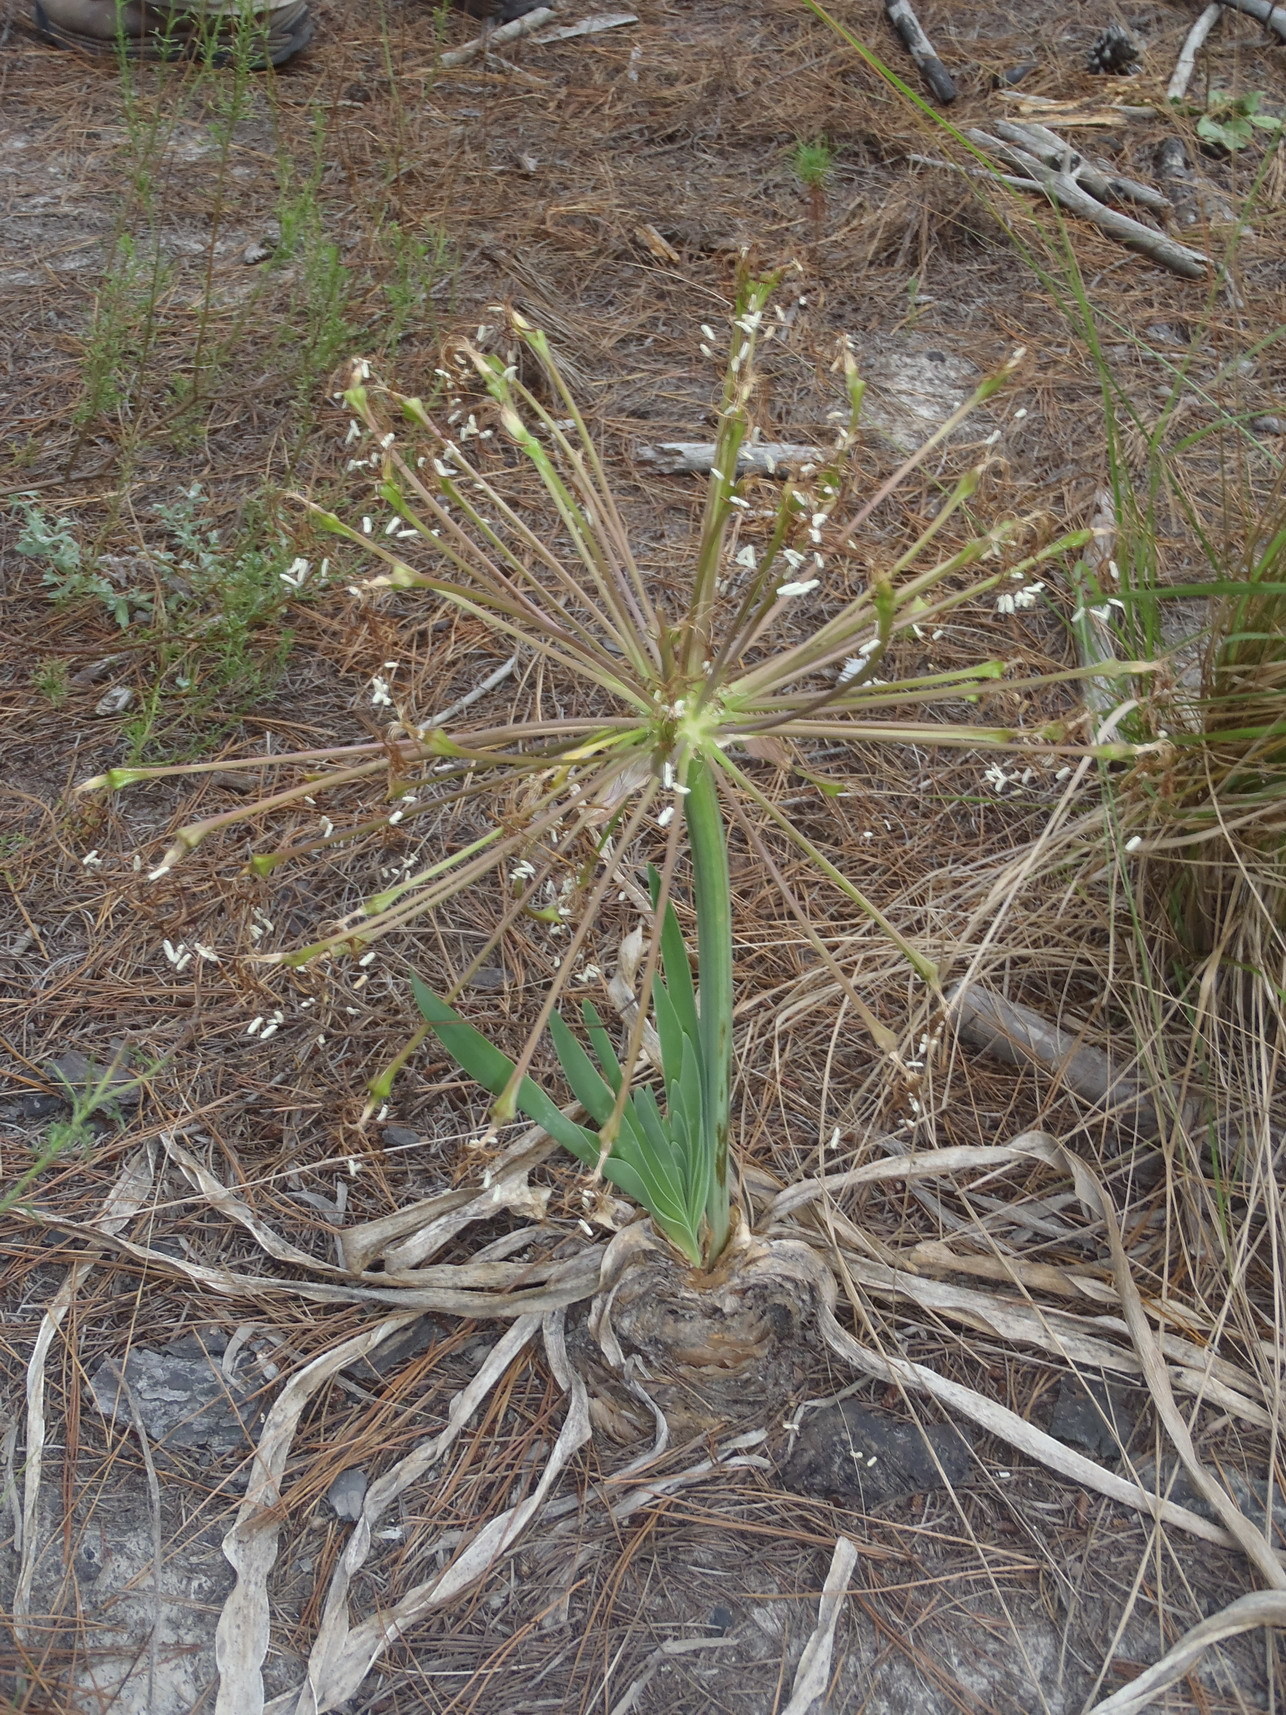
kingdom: Plantae
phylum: Tracheophyta
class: Liliopsida
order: Asparagales
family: Amaryllidaceae
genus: Boophone
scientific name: Boophone disticha
